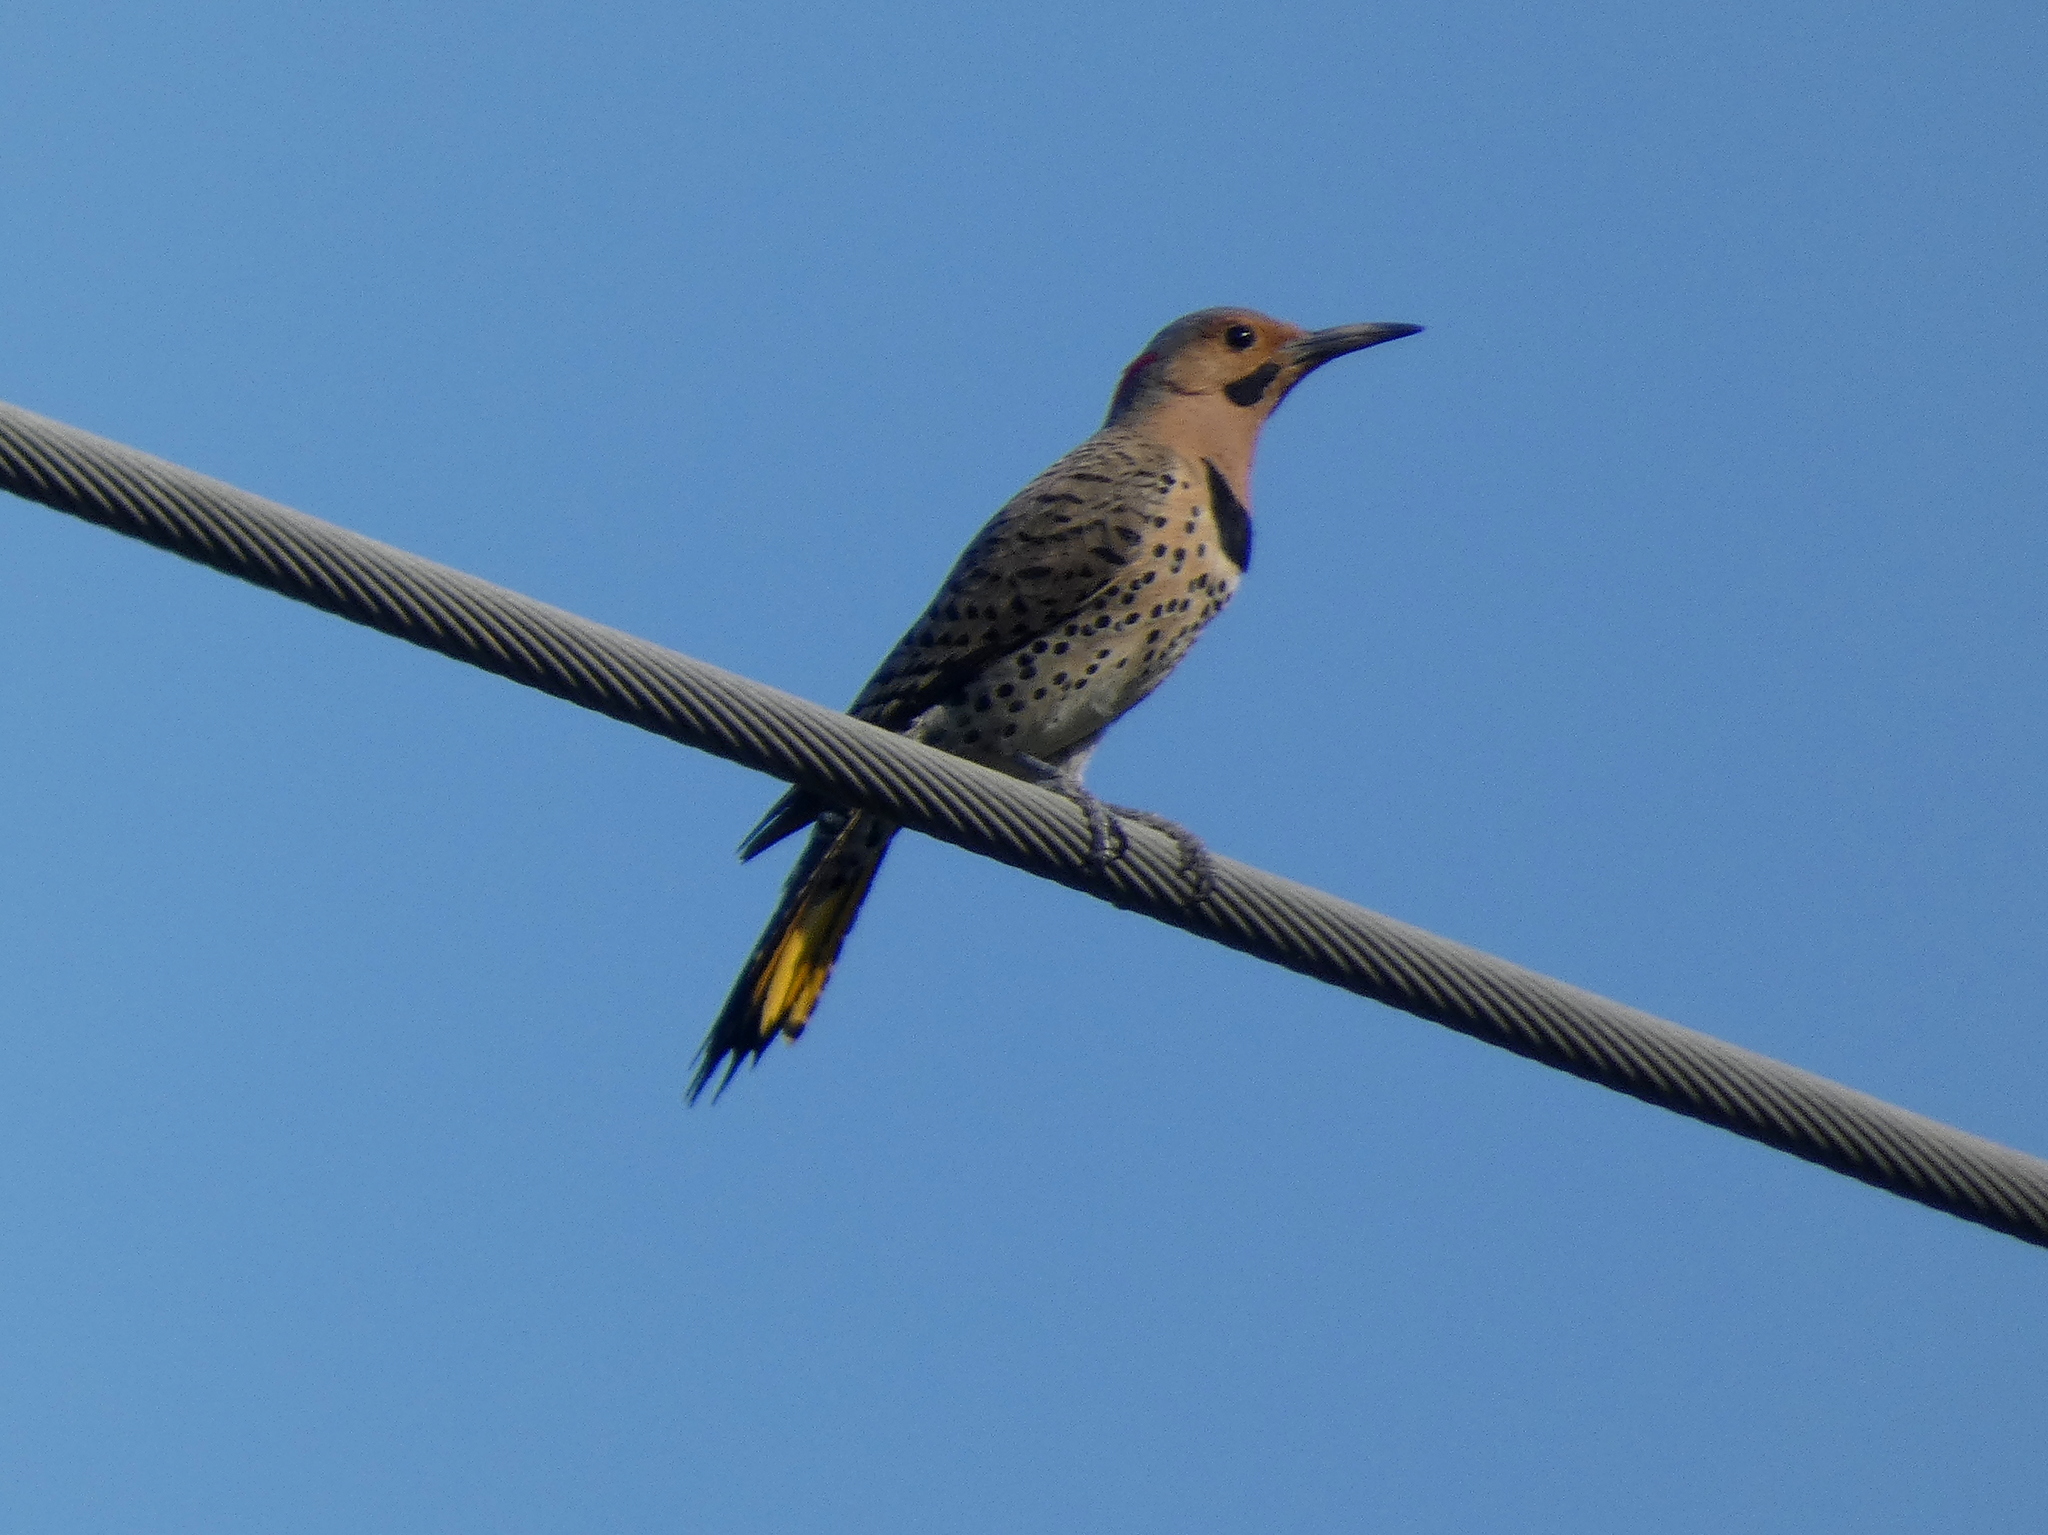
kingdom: Animalia
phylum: Chordata
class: Aves
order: Piciformes
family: Picidae
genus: Colaptes
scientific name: Colaptes auratus
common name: Northern flicker
